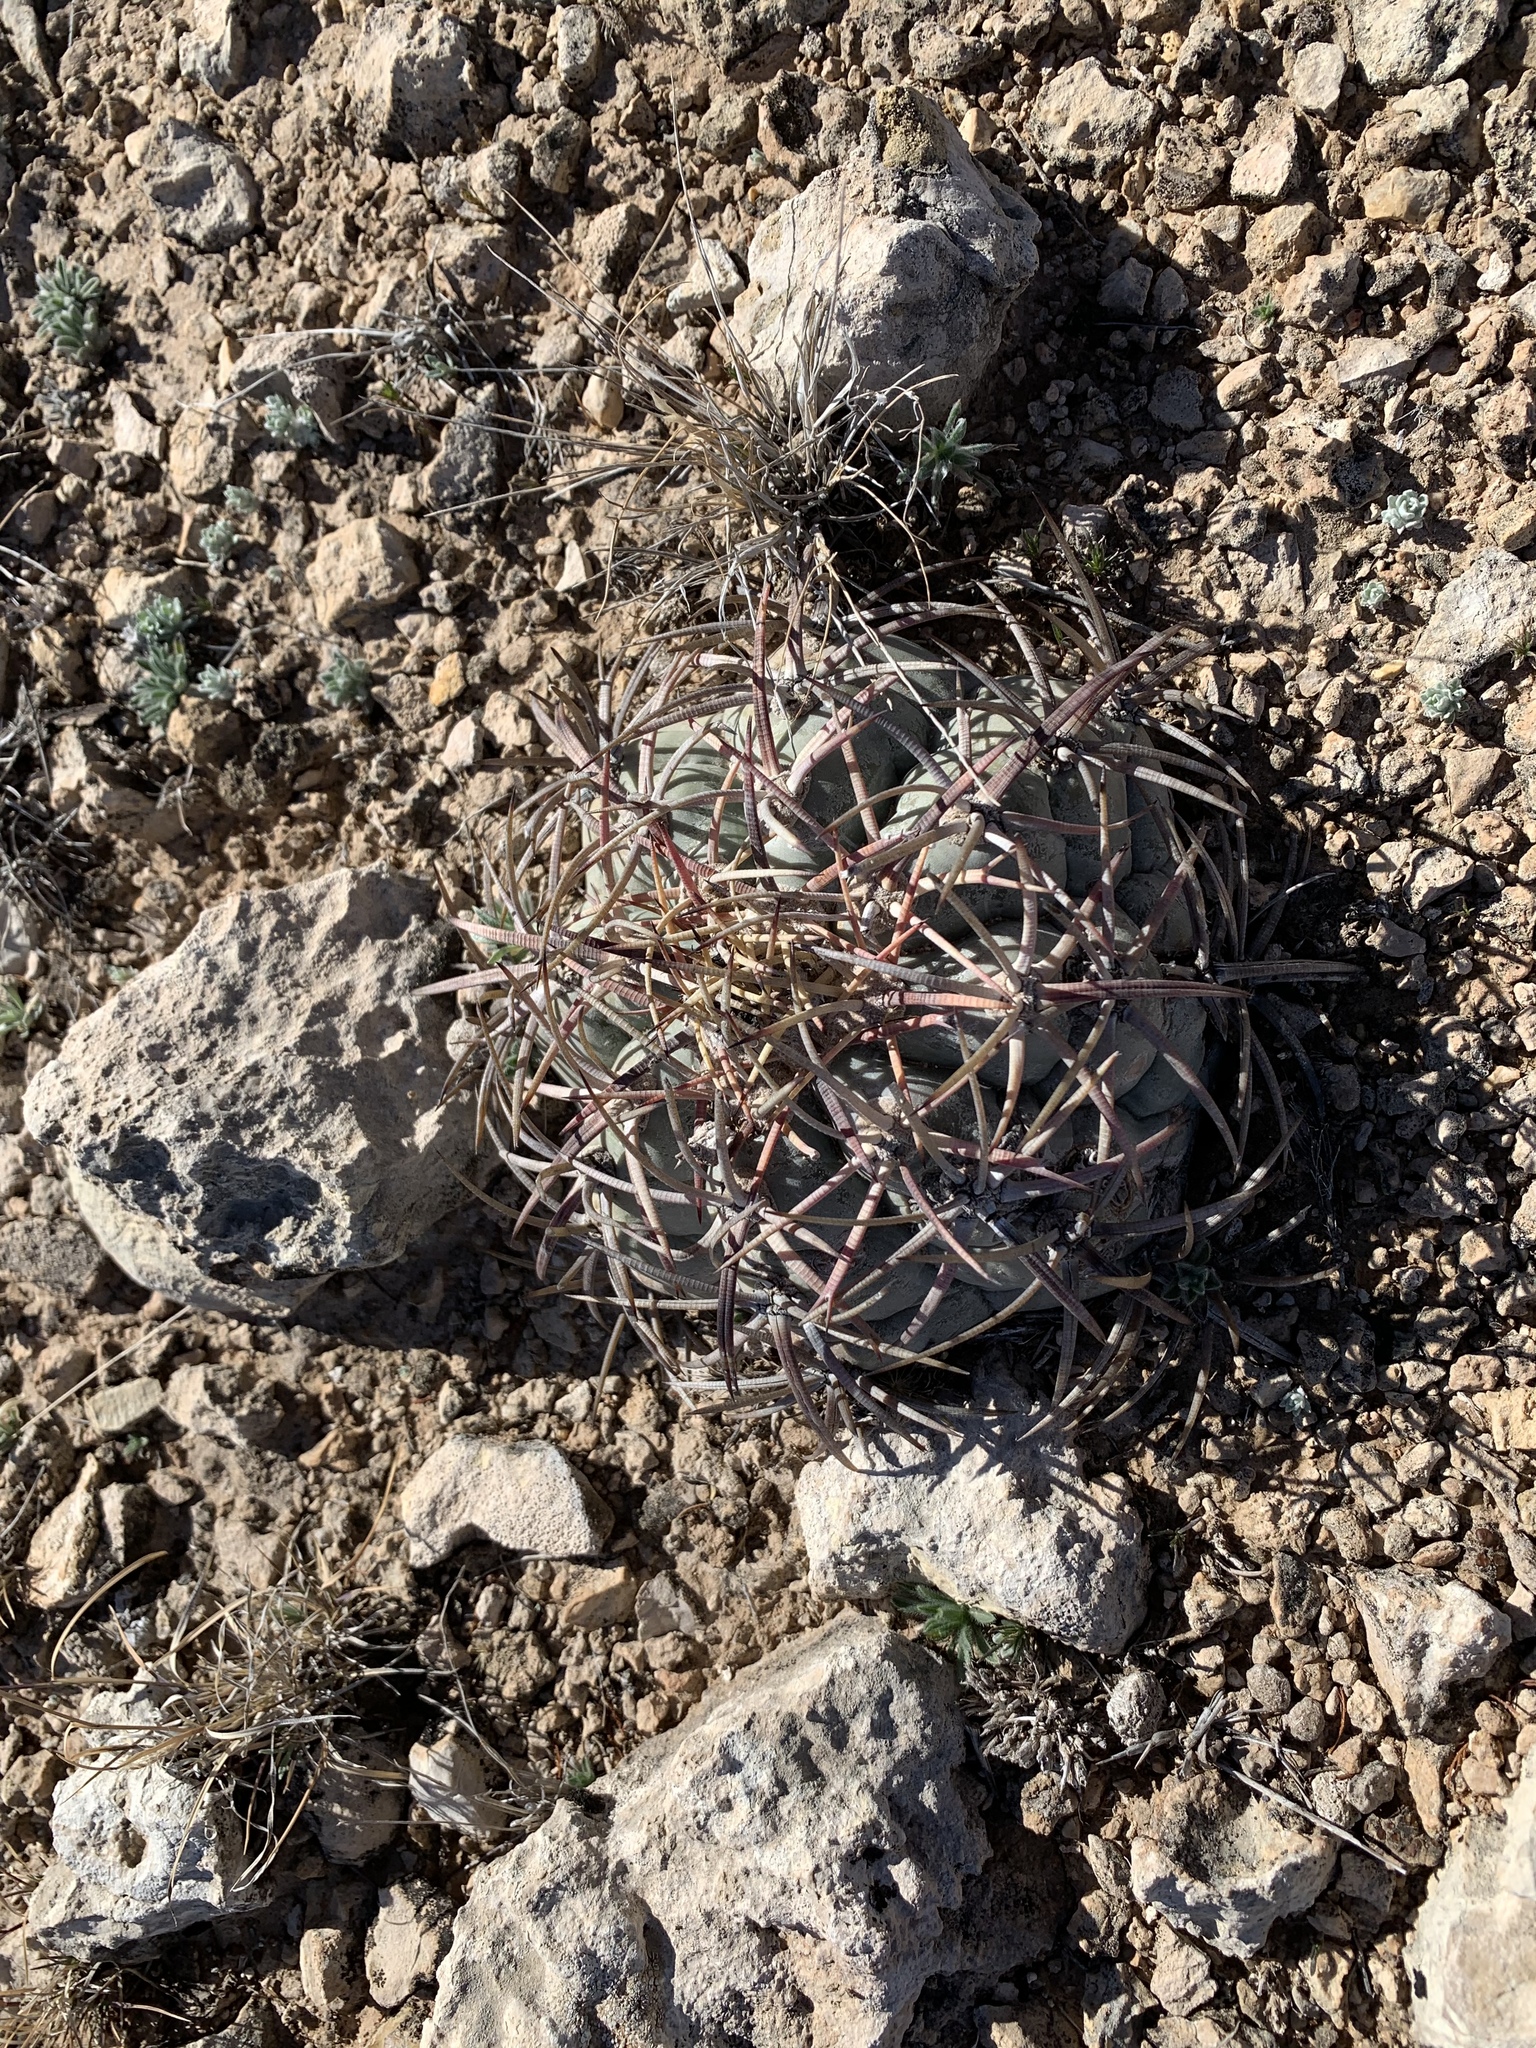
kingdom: Plantae
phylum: Tracheophyta
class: Magnoliopsida
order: Caryophyllales
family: Cactaceae
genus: Echinocactus
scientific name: Echinocactus horizonthalonius
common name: Devilshead
